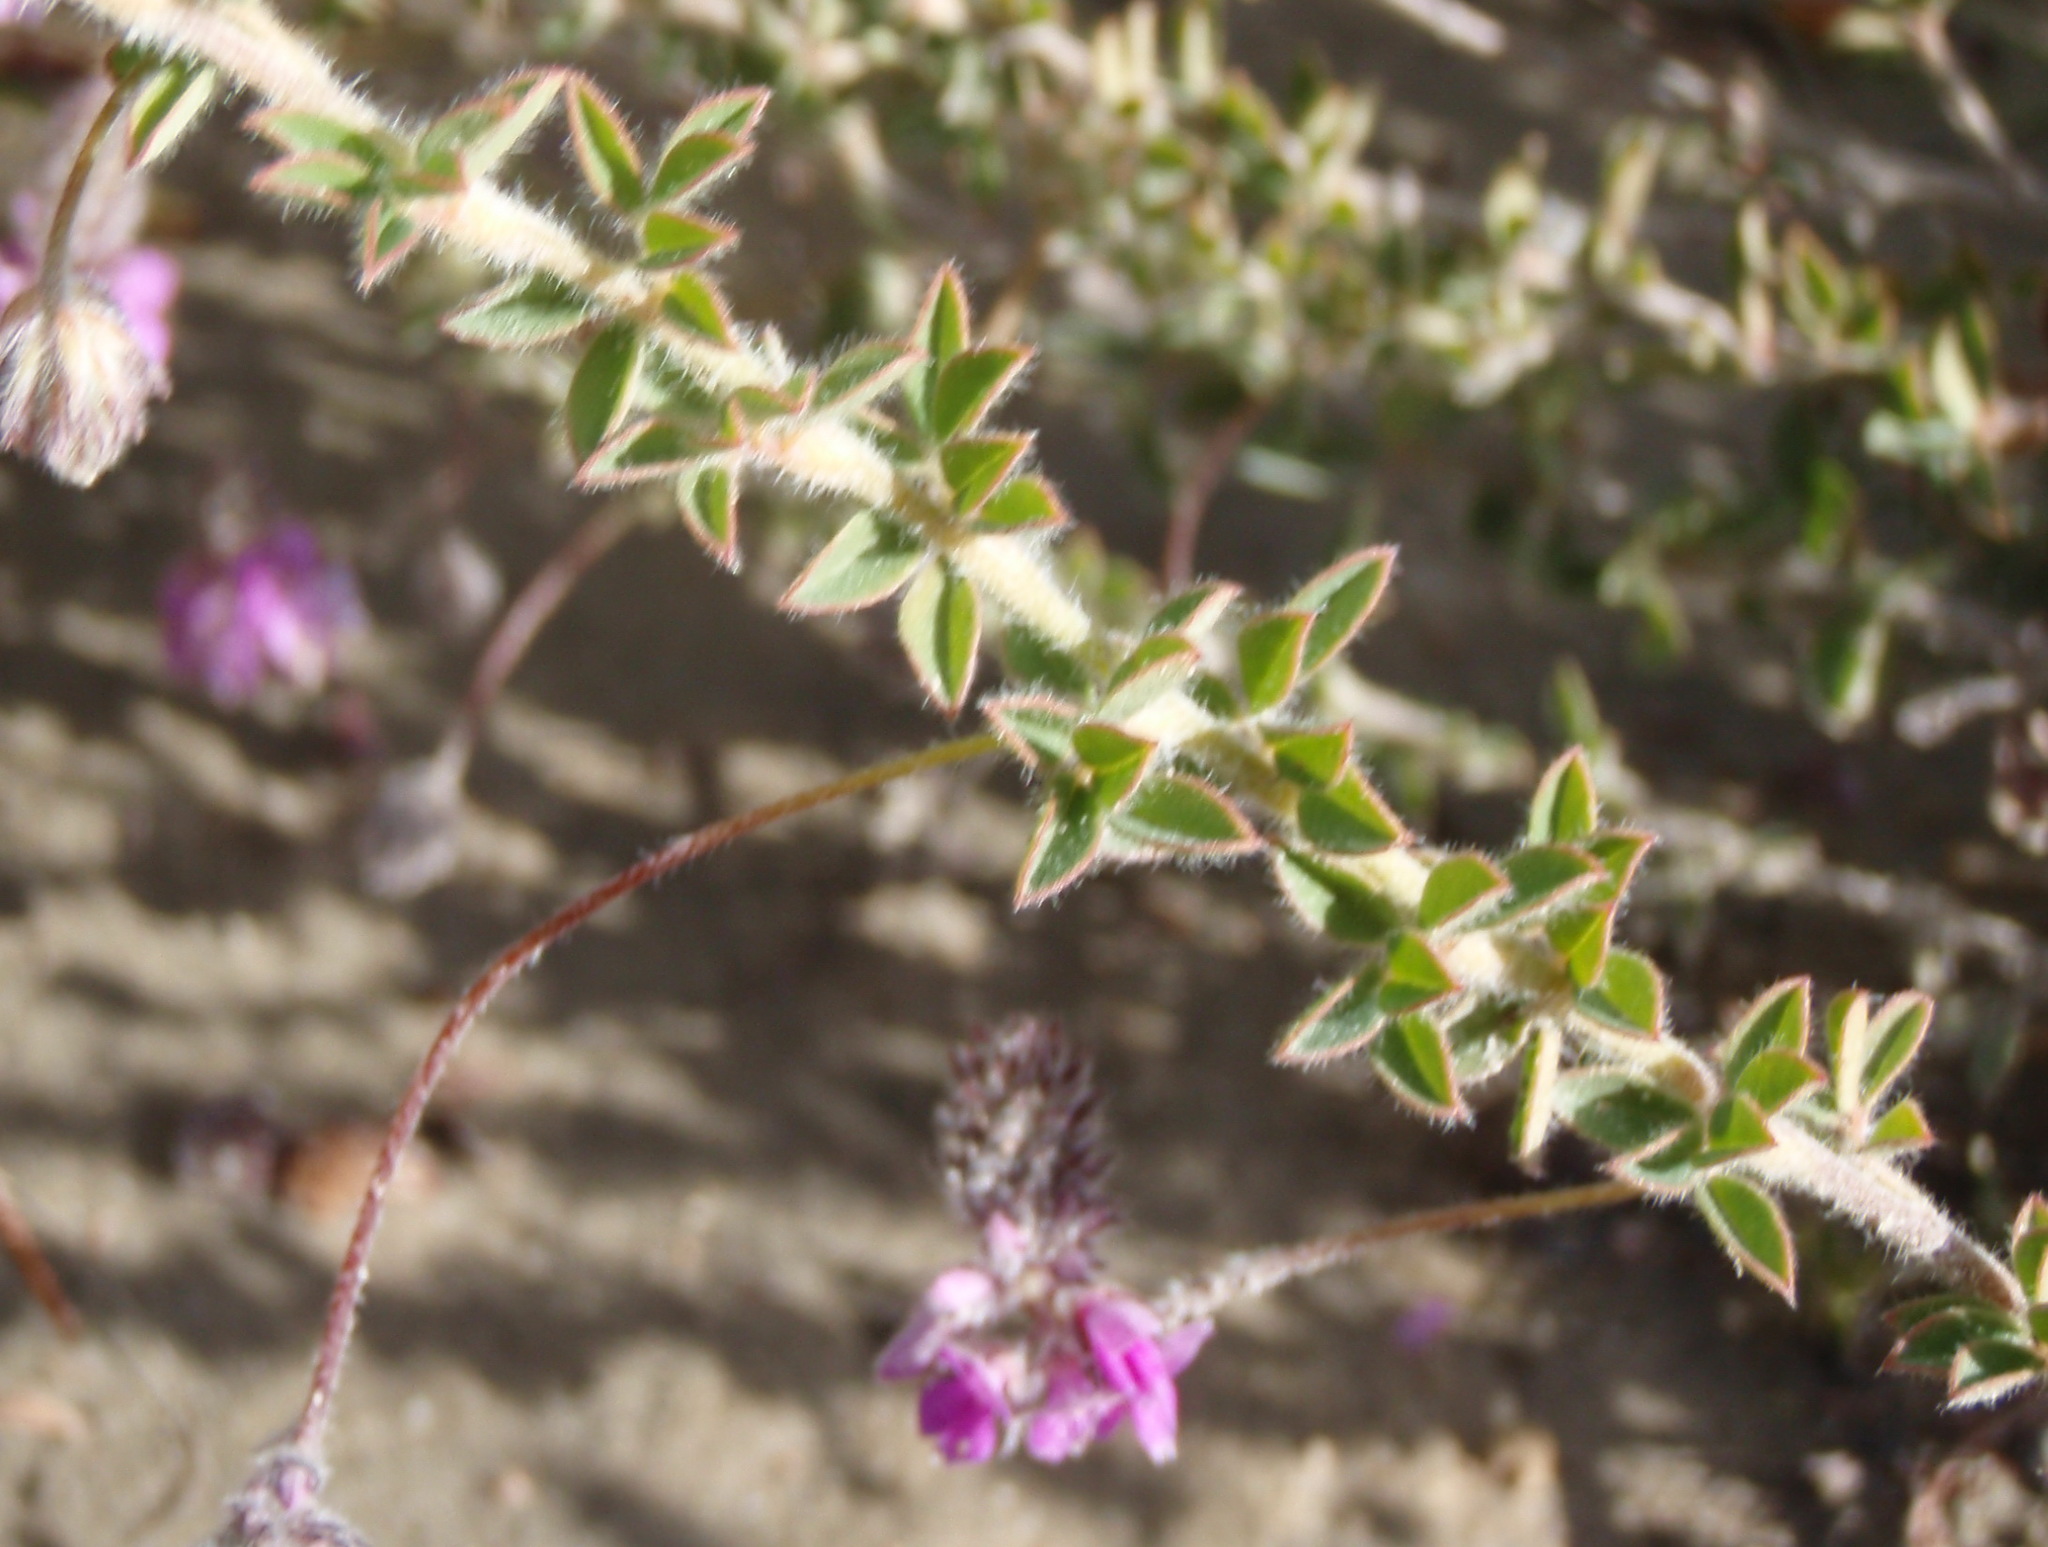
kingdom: Plantae
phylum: Tracheophyta
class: Magnoliopsida
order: Fabales
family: Fabaceae
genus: Indigofera
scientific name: Indigofera alopecuroides
